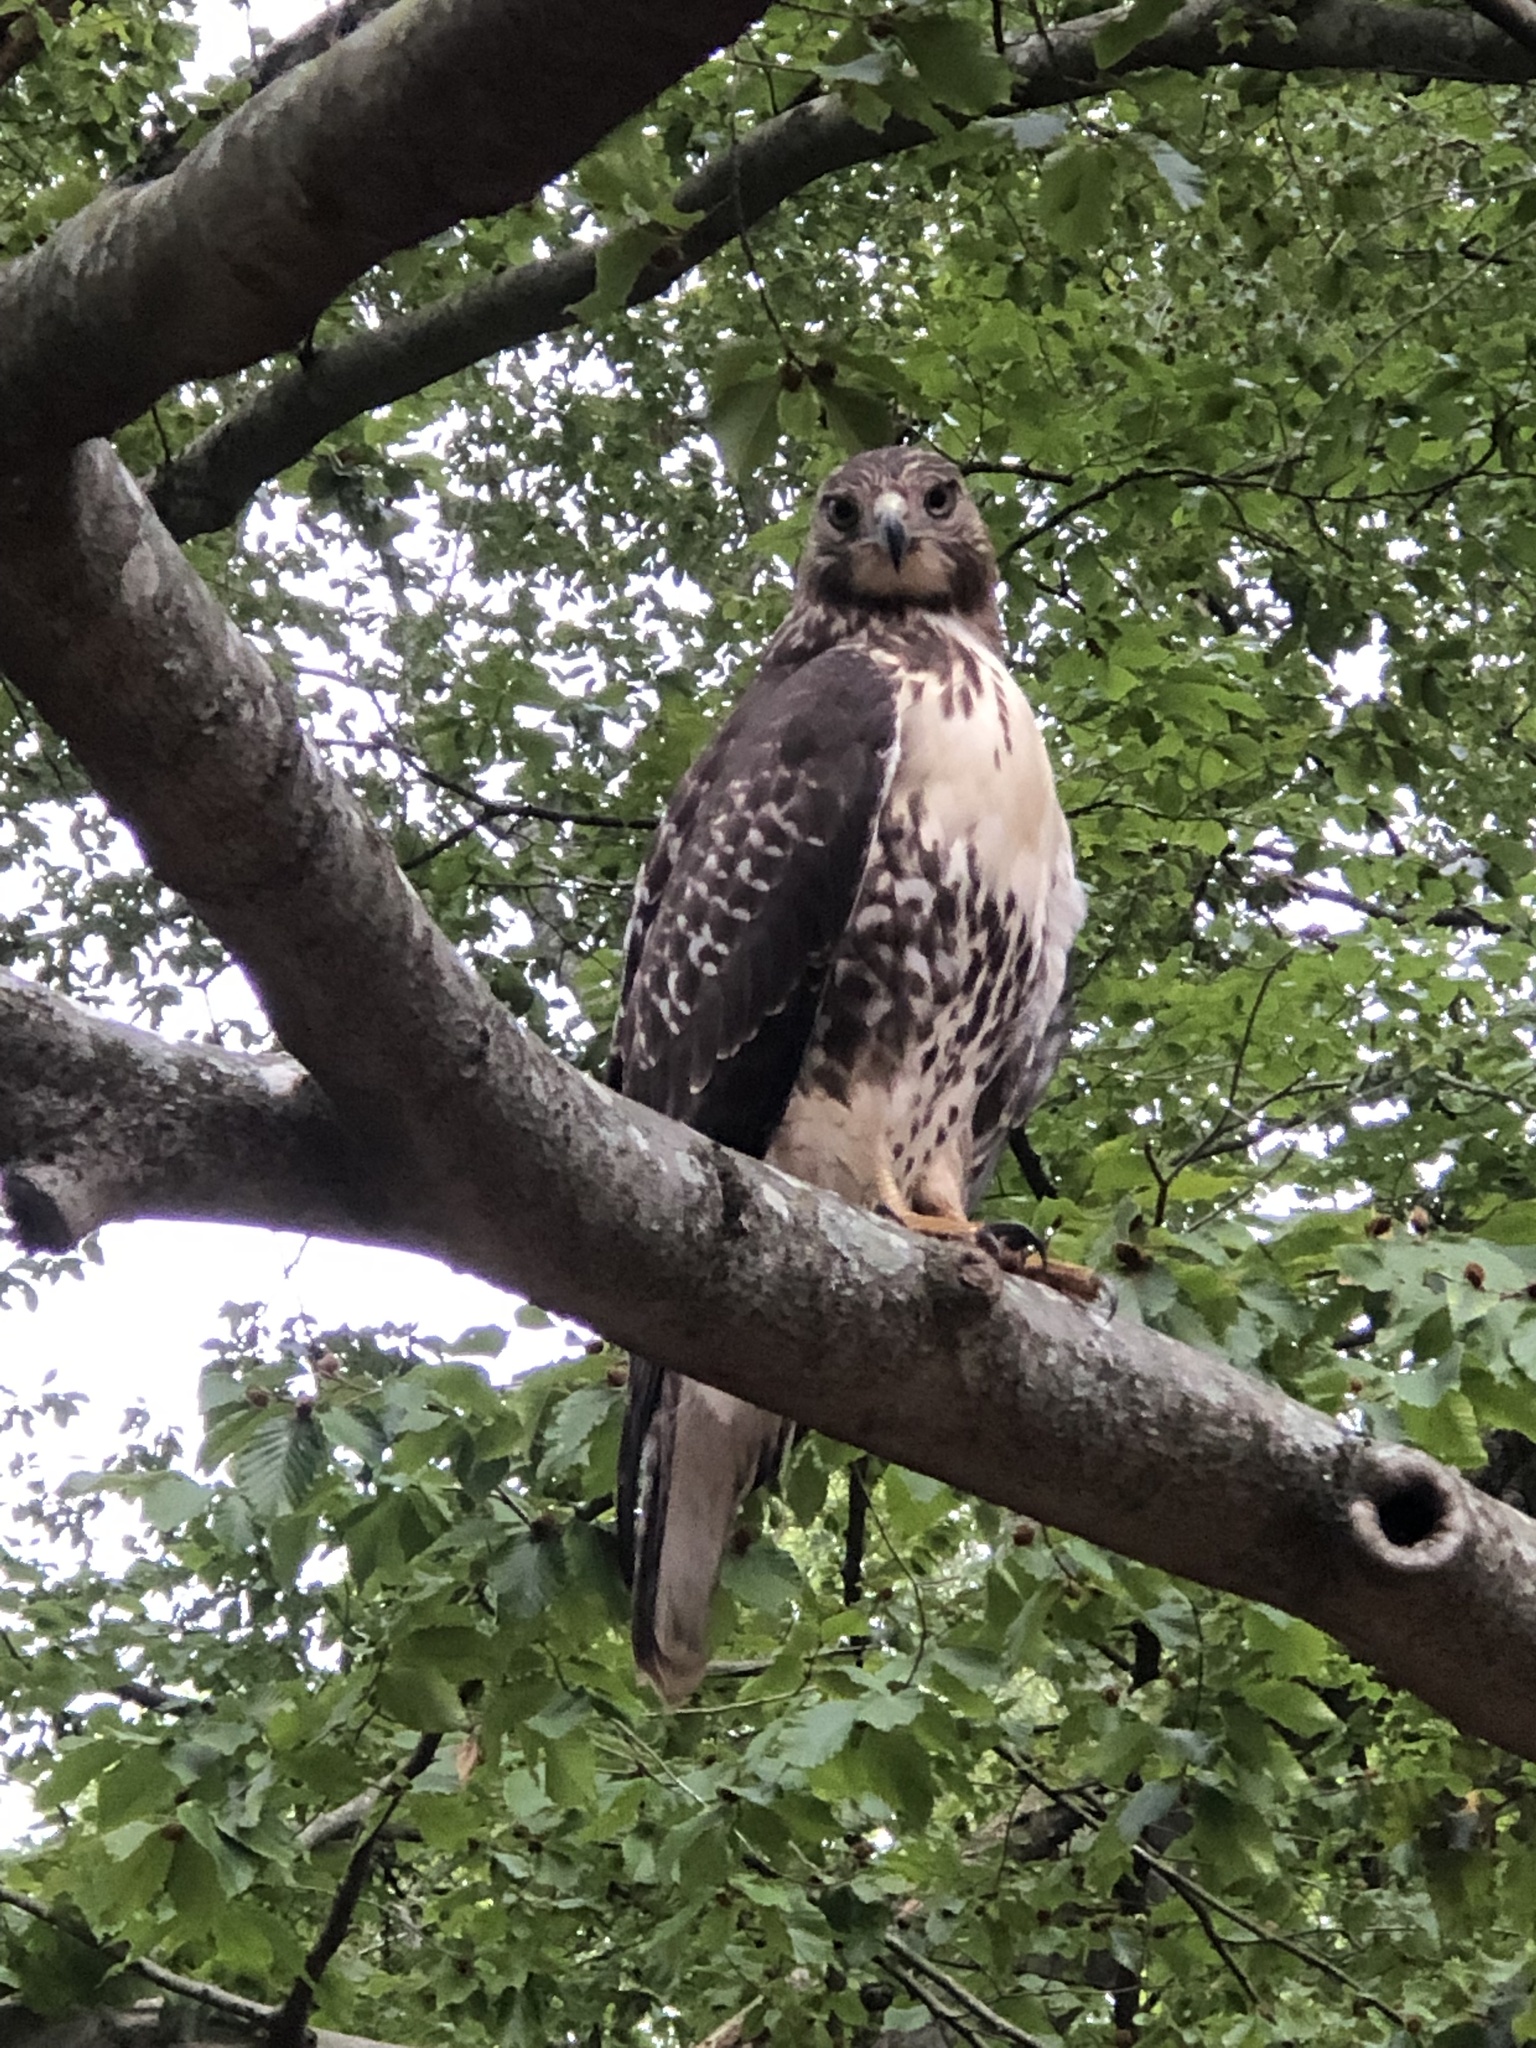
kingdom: Animalia
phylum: Chordata
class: Aves
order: Accipitriformes
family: Accipitridae
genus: Buteo
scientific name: Buteo jamaicensis
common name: Red-tailed hawk
